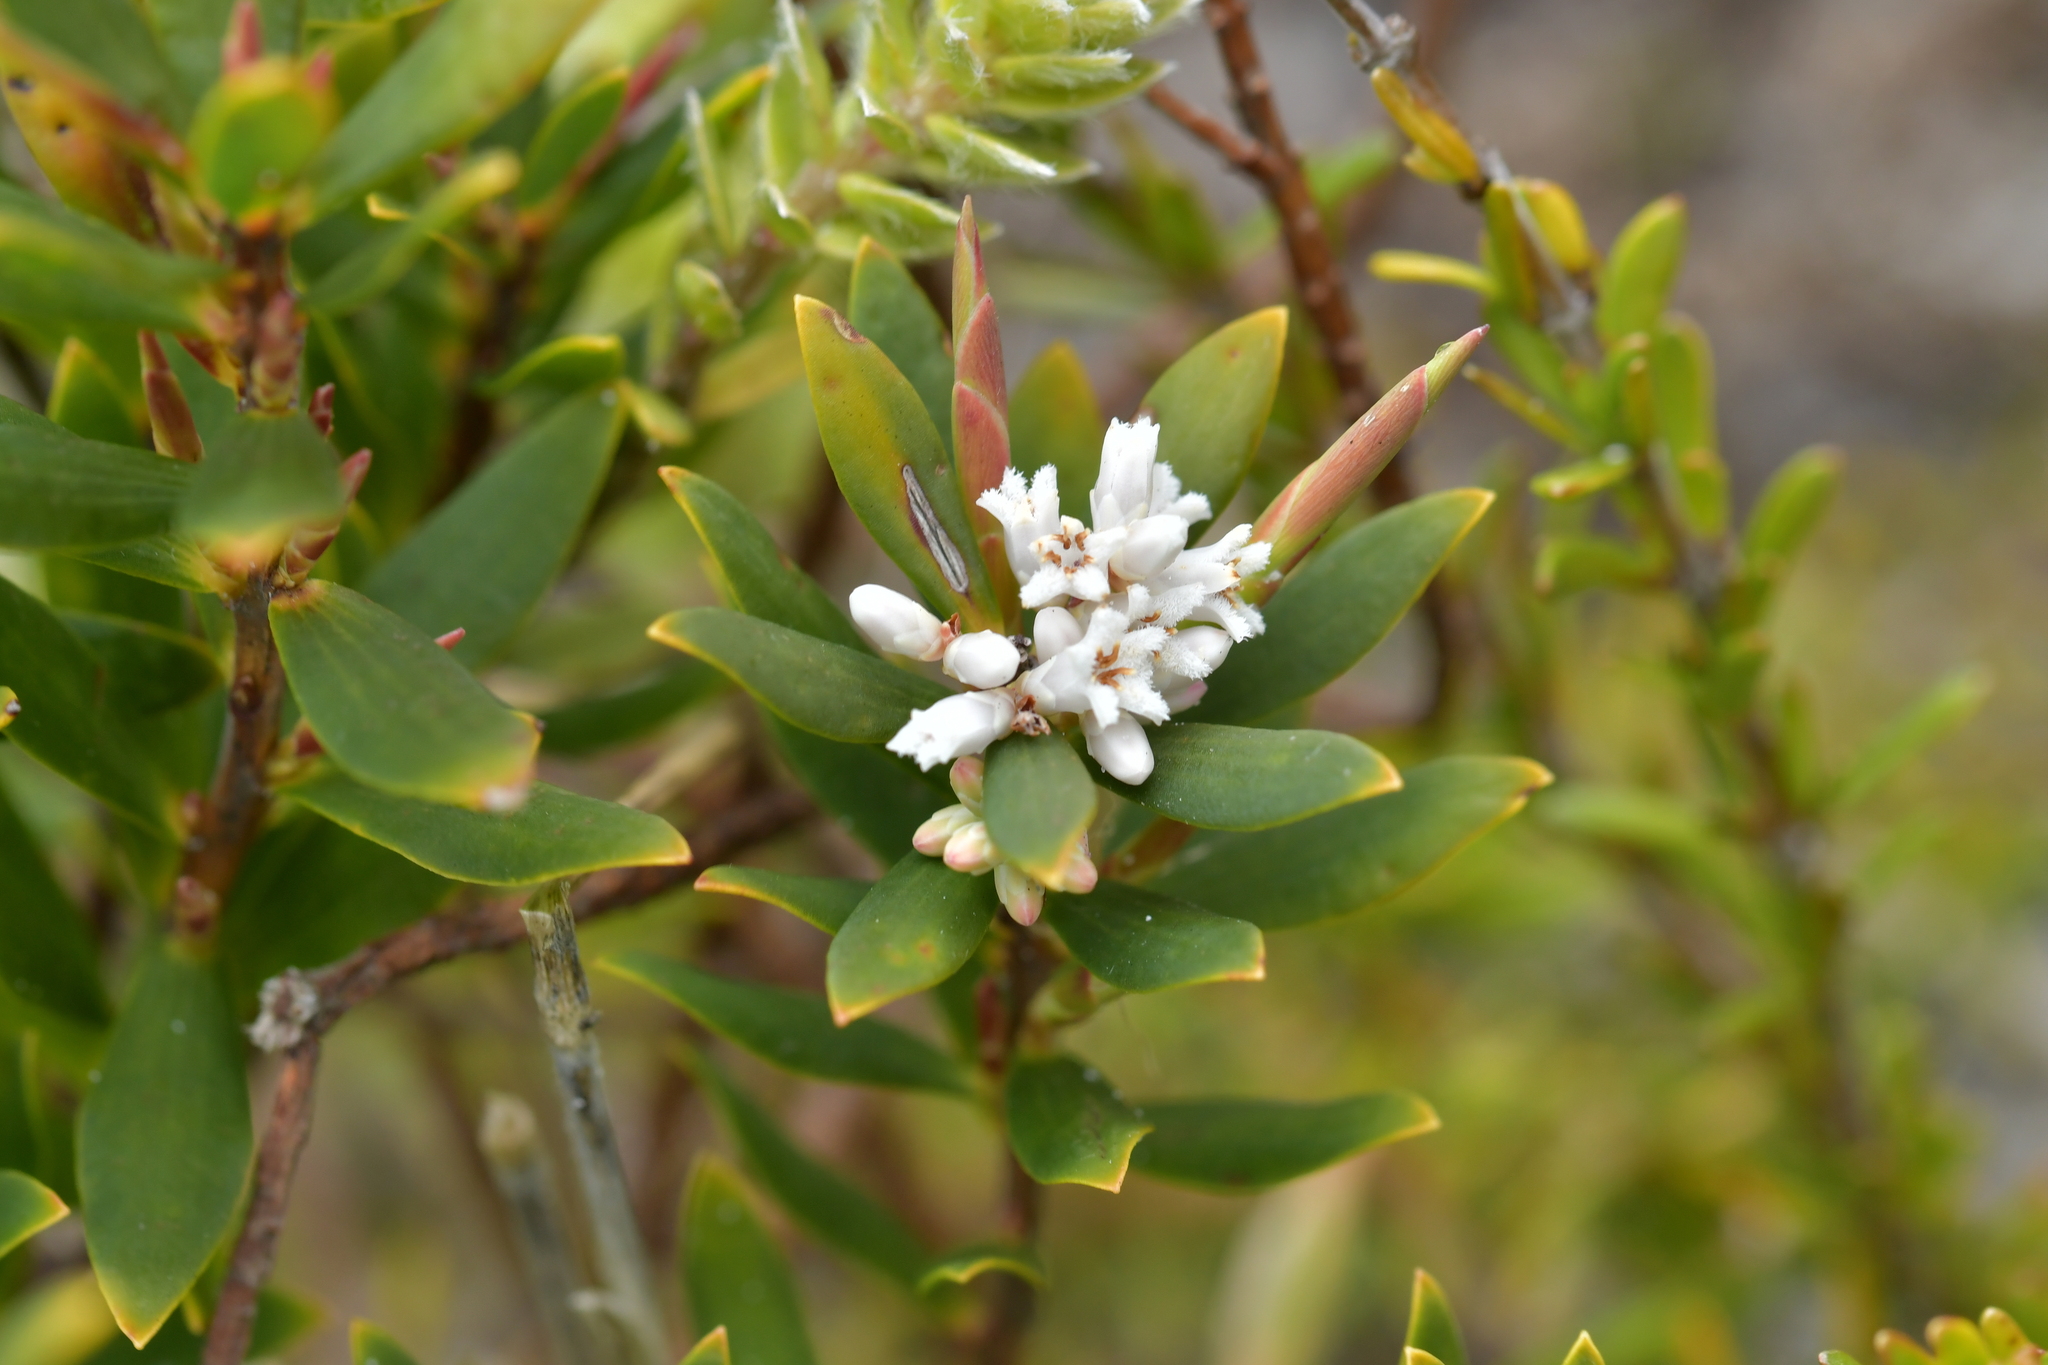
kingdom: Plantae
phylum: Tracheophyta
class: Magnoliopsida
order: Ericales
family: Ericaceae
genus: Leptecophylla
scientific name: Leptecophylla parvifolia
